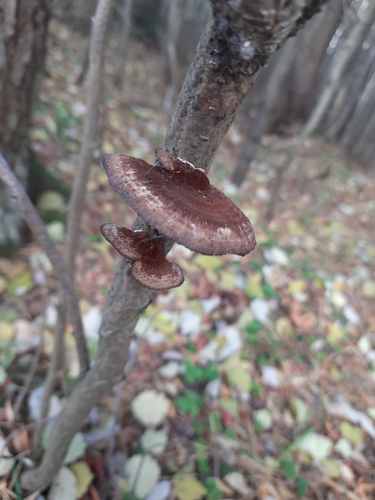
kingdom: Fungi
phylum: Basidiomycota
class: Agaricomycetes
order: Polyporales
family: Polyporaceae
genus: Daedaleopsis
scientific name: Daedaleopsis tricolor
